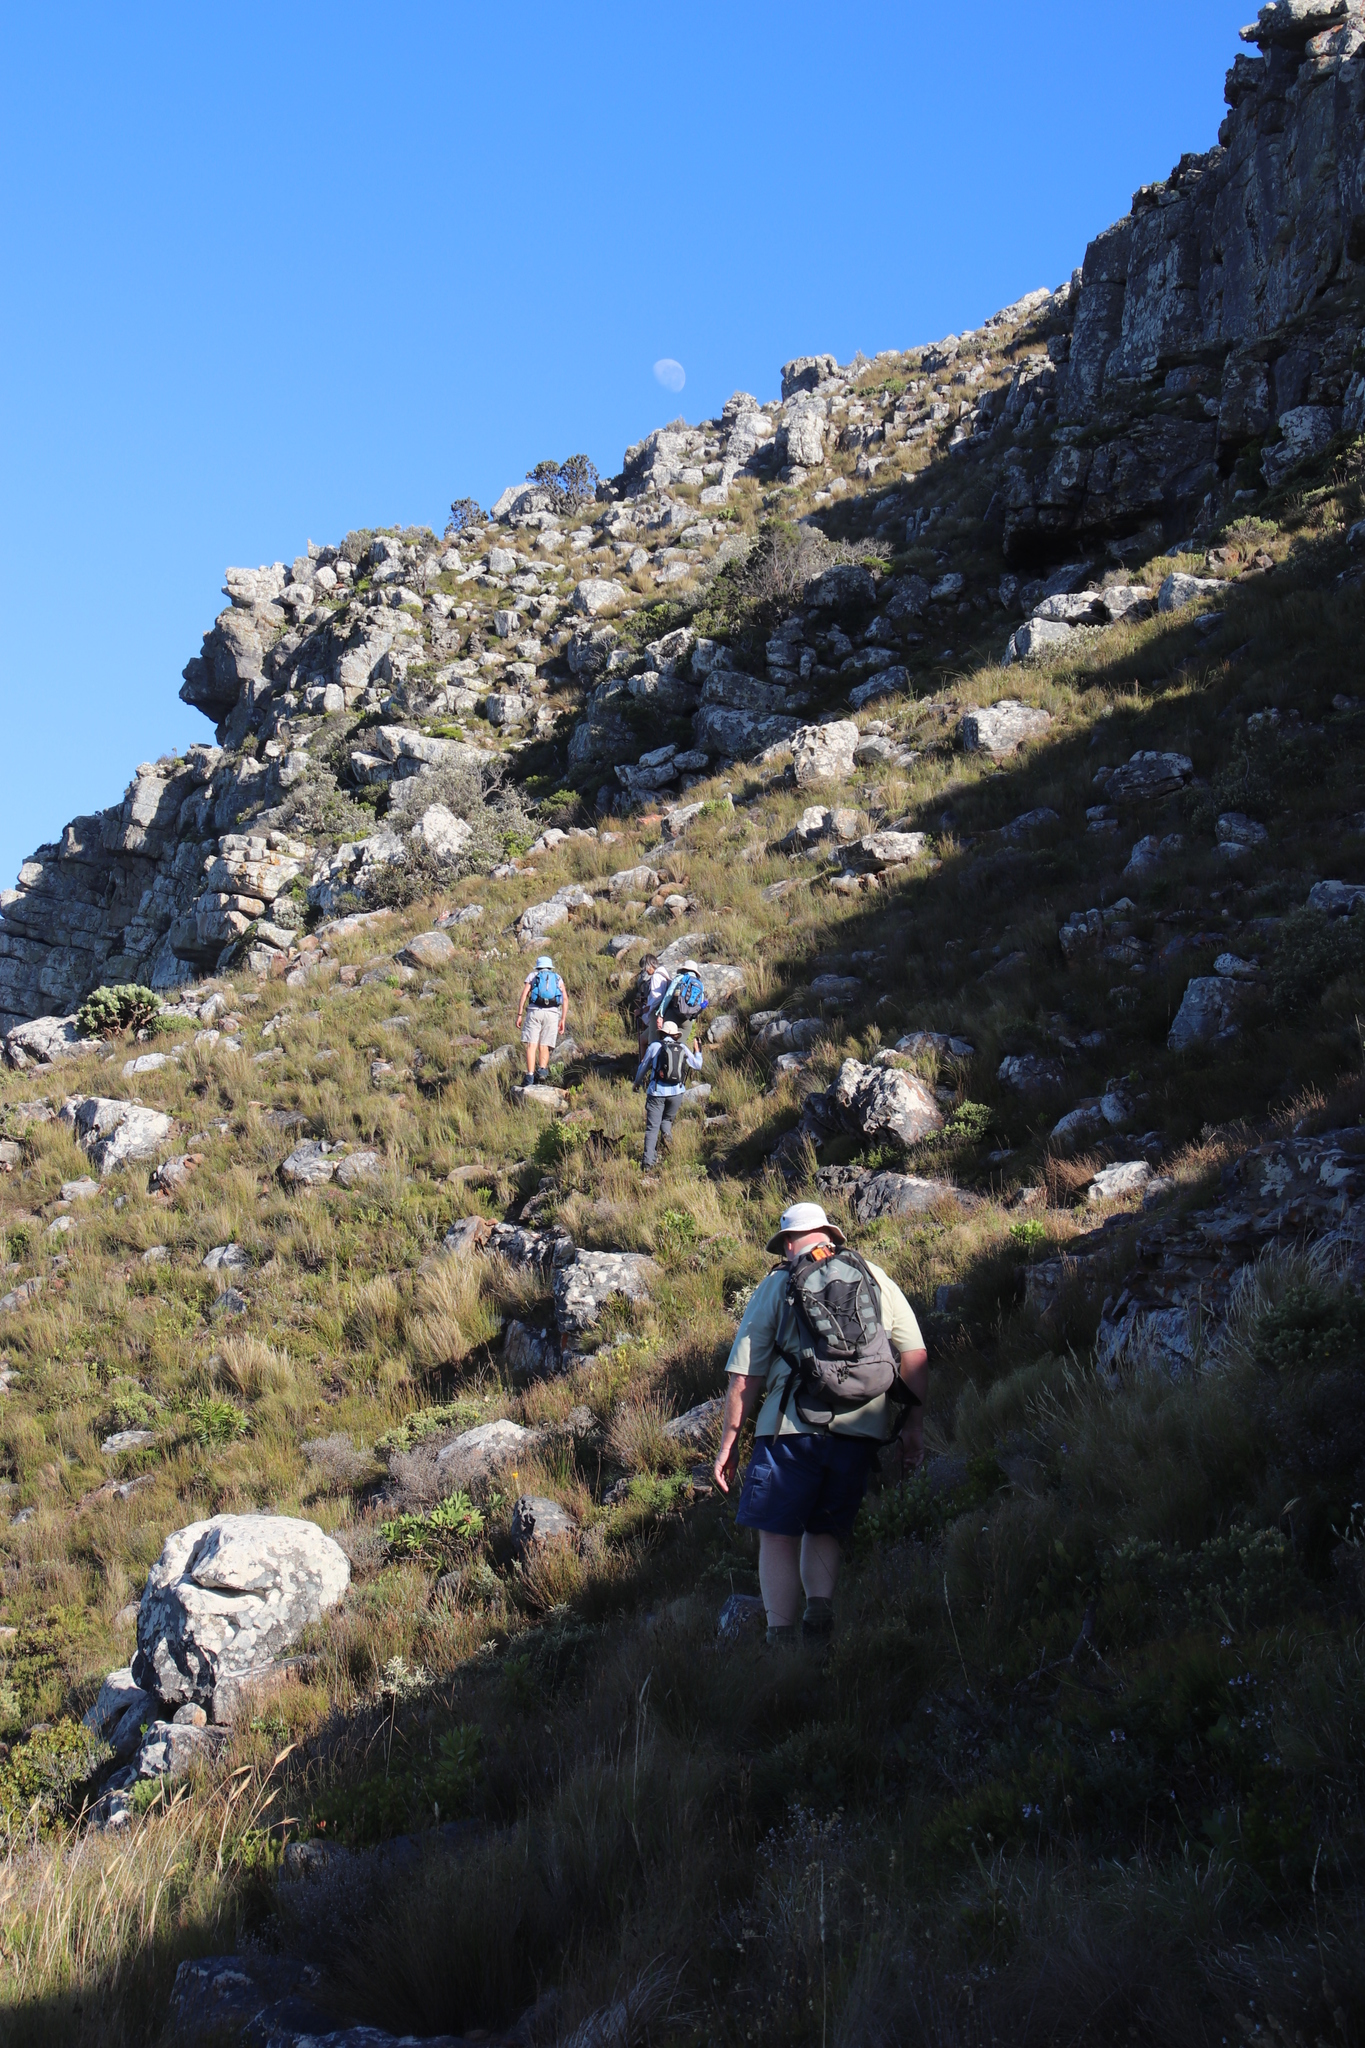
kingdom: Plantae
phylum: Tracheophyta
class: Liliopsida
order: Poales
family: Poaceae
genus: Pseudopentameris
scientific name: Pseudopentameris macrantha
